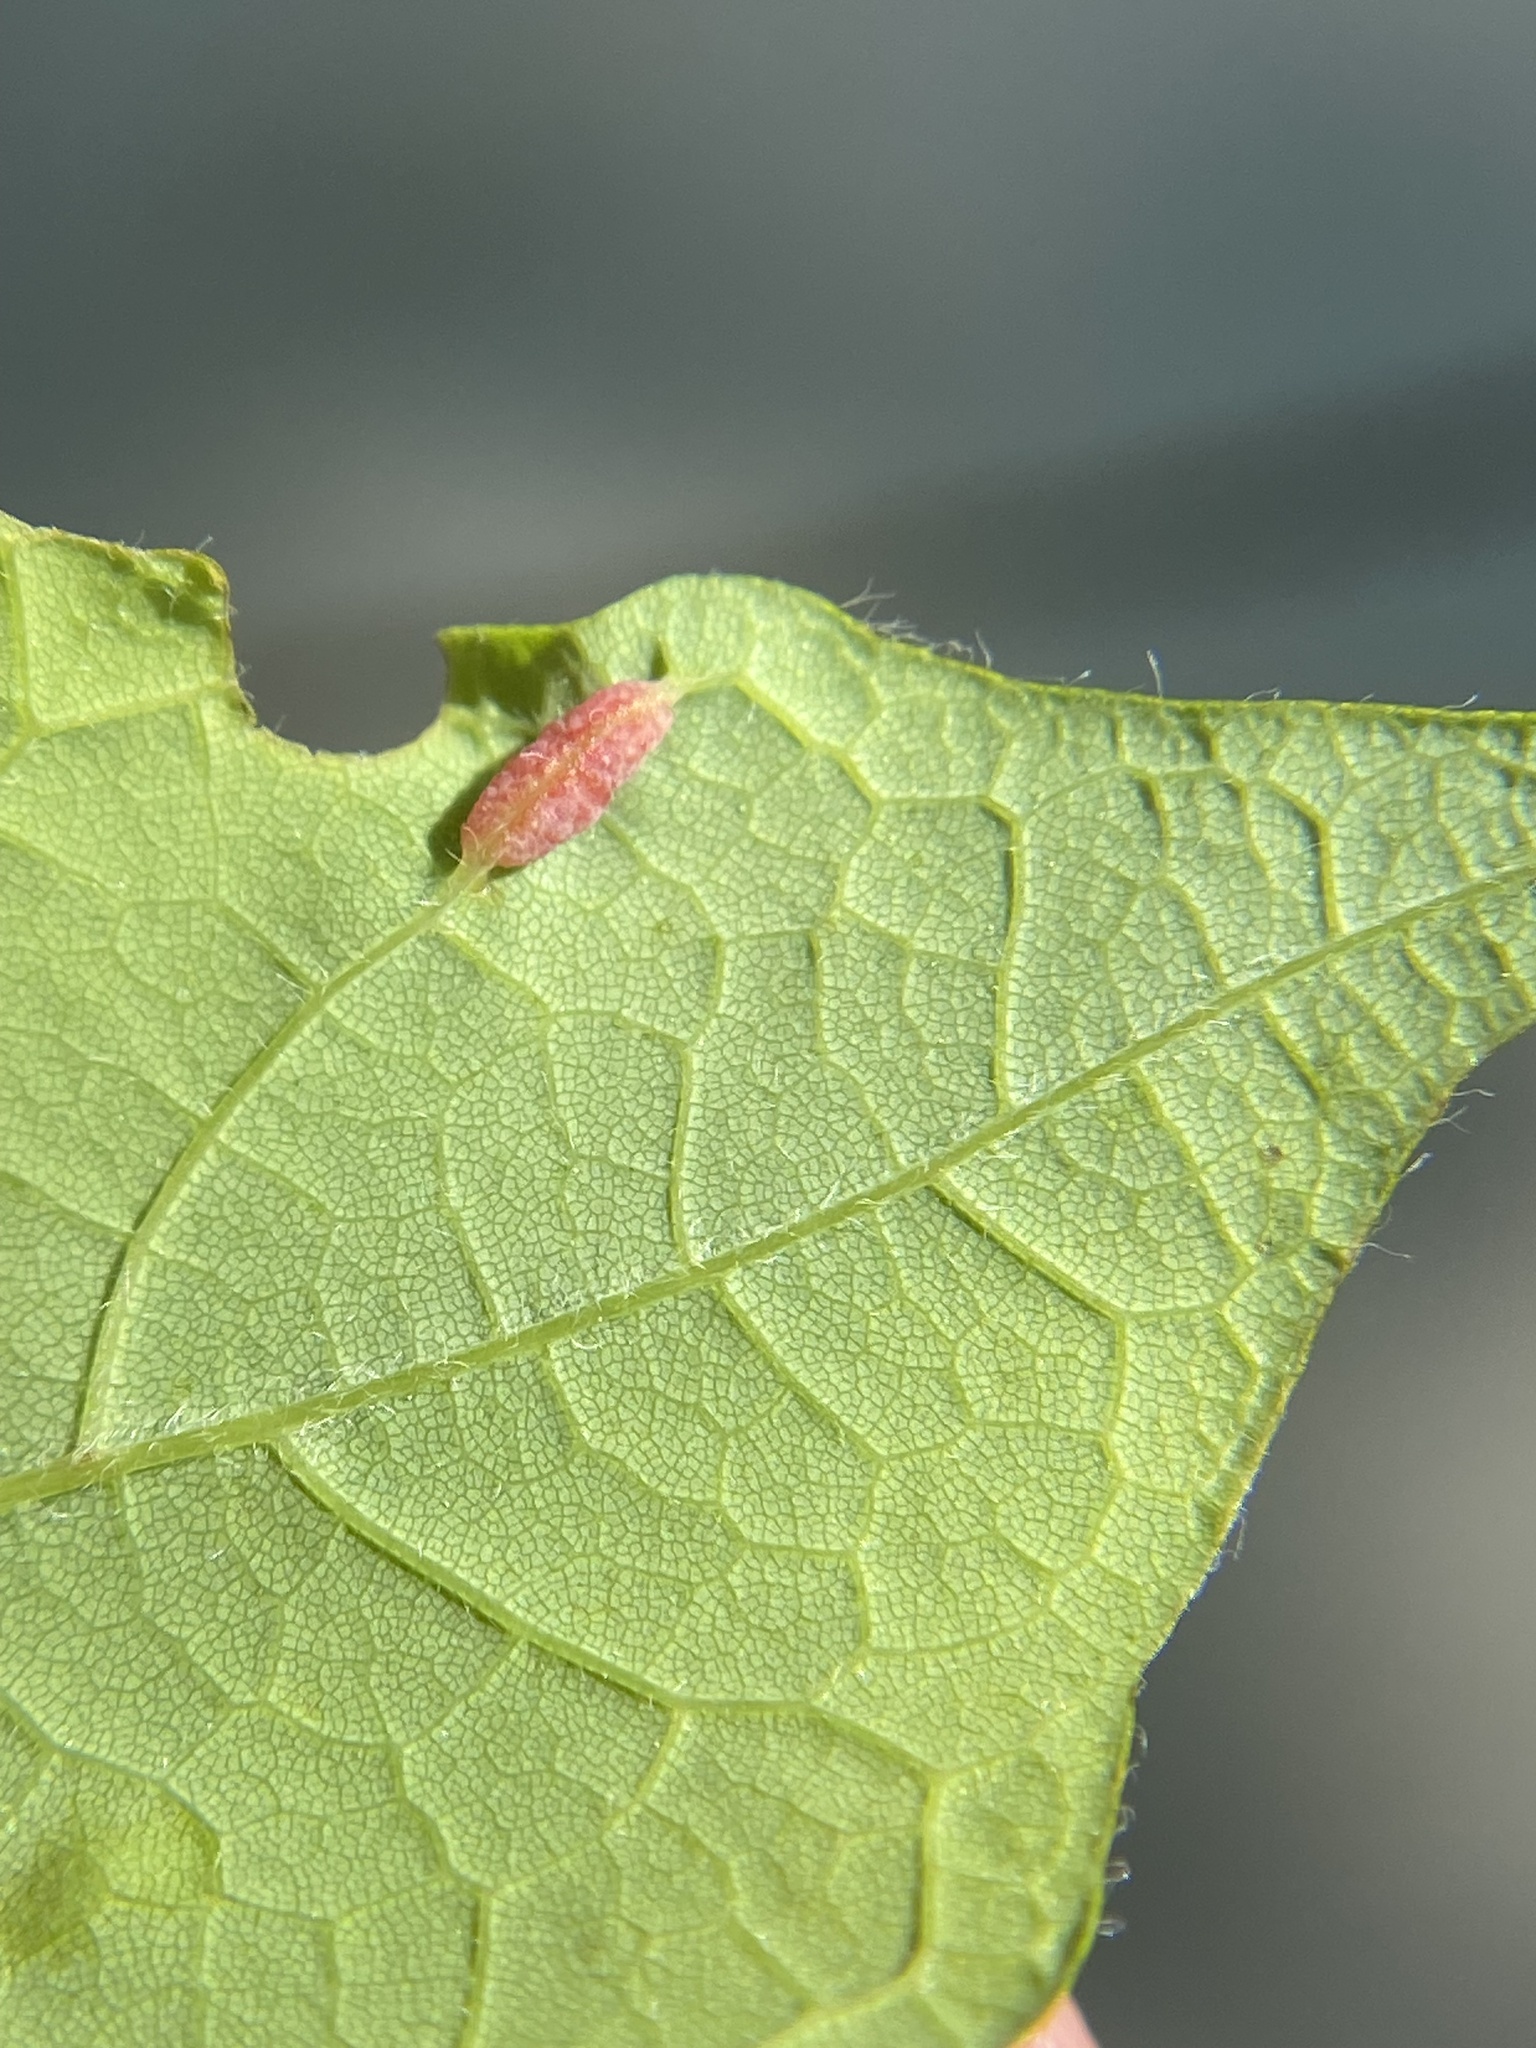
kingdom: Animalia
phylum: Arthropoda
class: Insecta
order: Diptera
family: Cecidomyiidae
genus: Dasineura
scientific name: Dasineura communis
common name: Gouty vein midge
